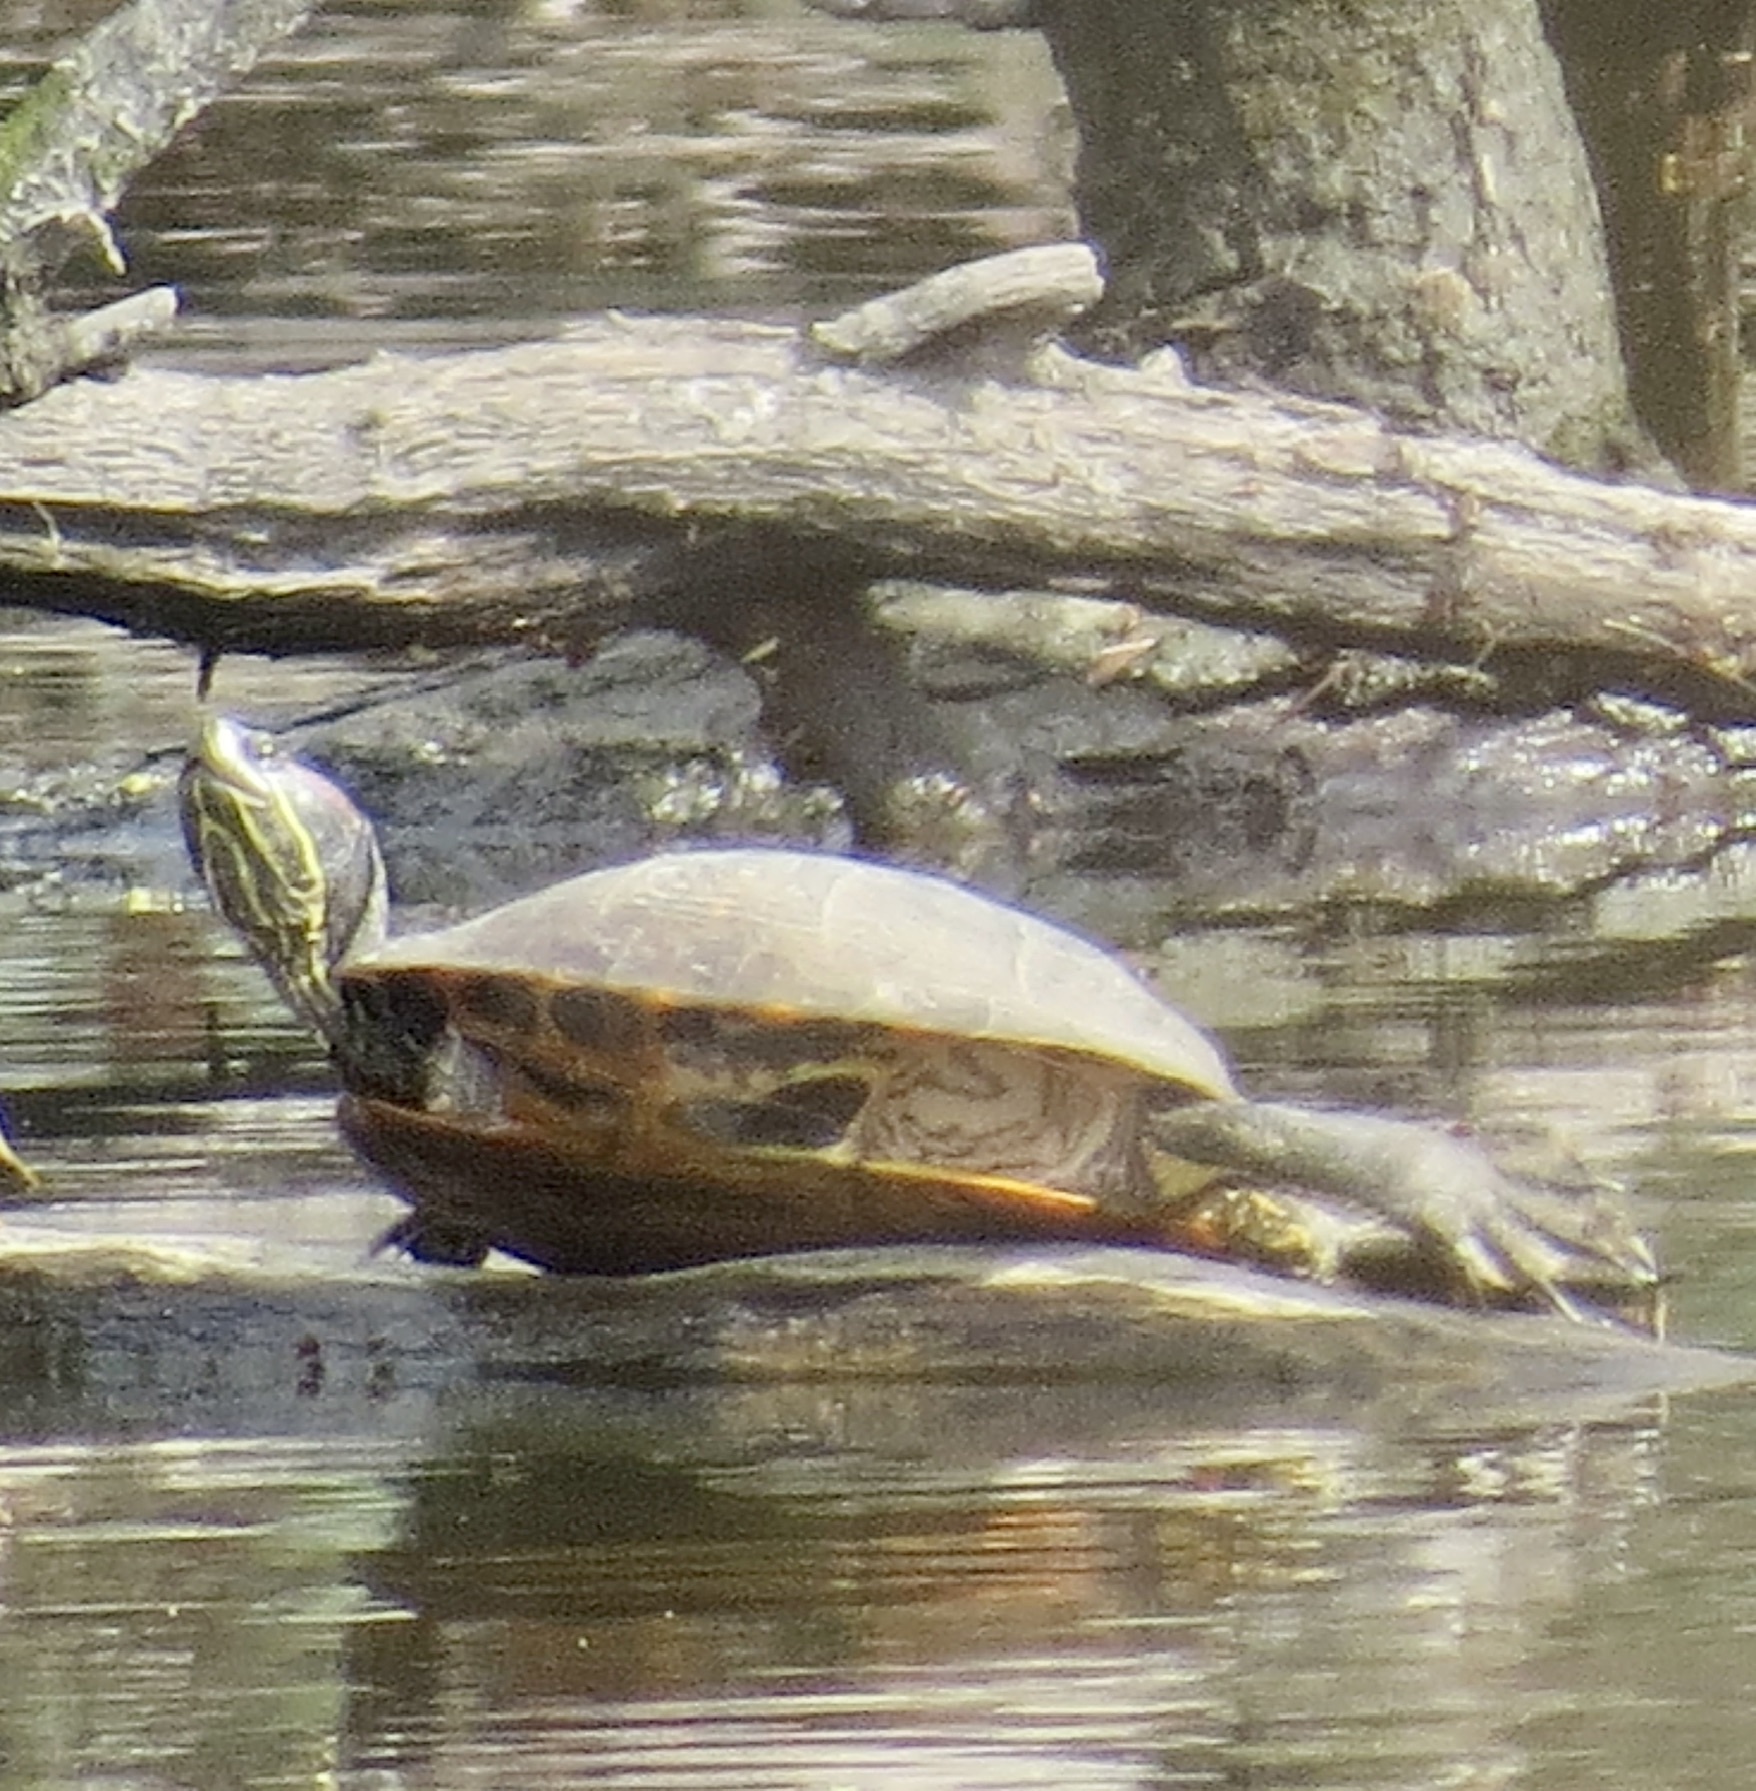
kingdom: Animalia
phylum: Chordata
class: Testudines
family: Emydidae
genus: Trachemys
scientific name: Trachemys scripta
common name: Slider
